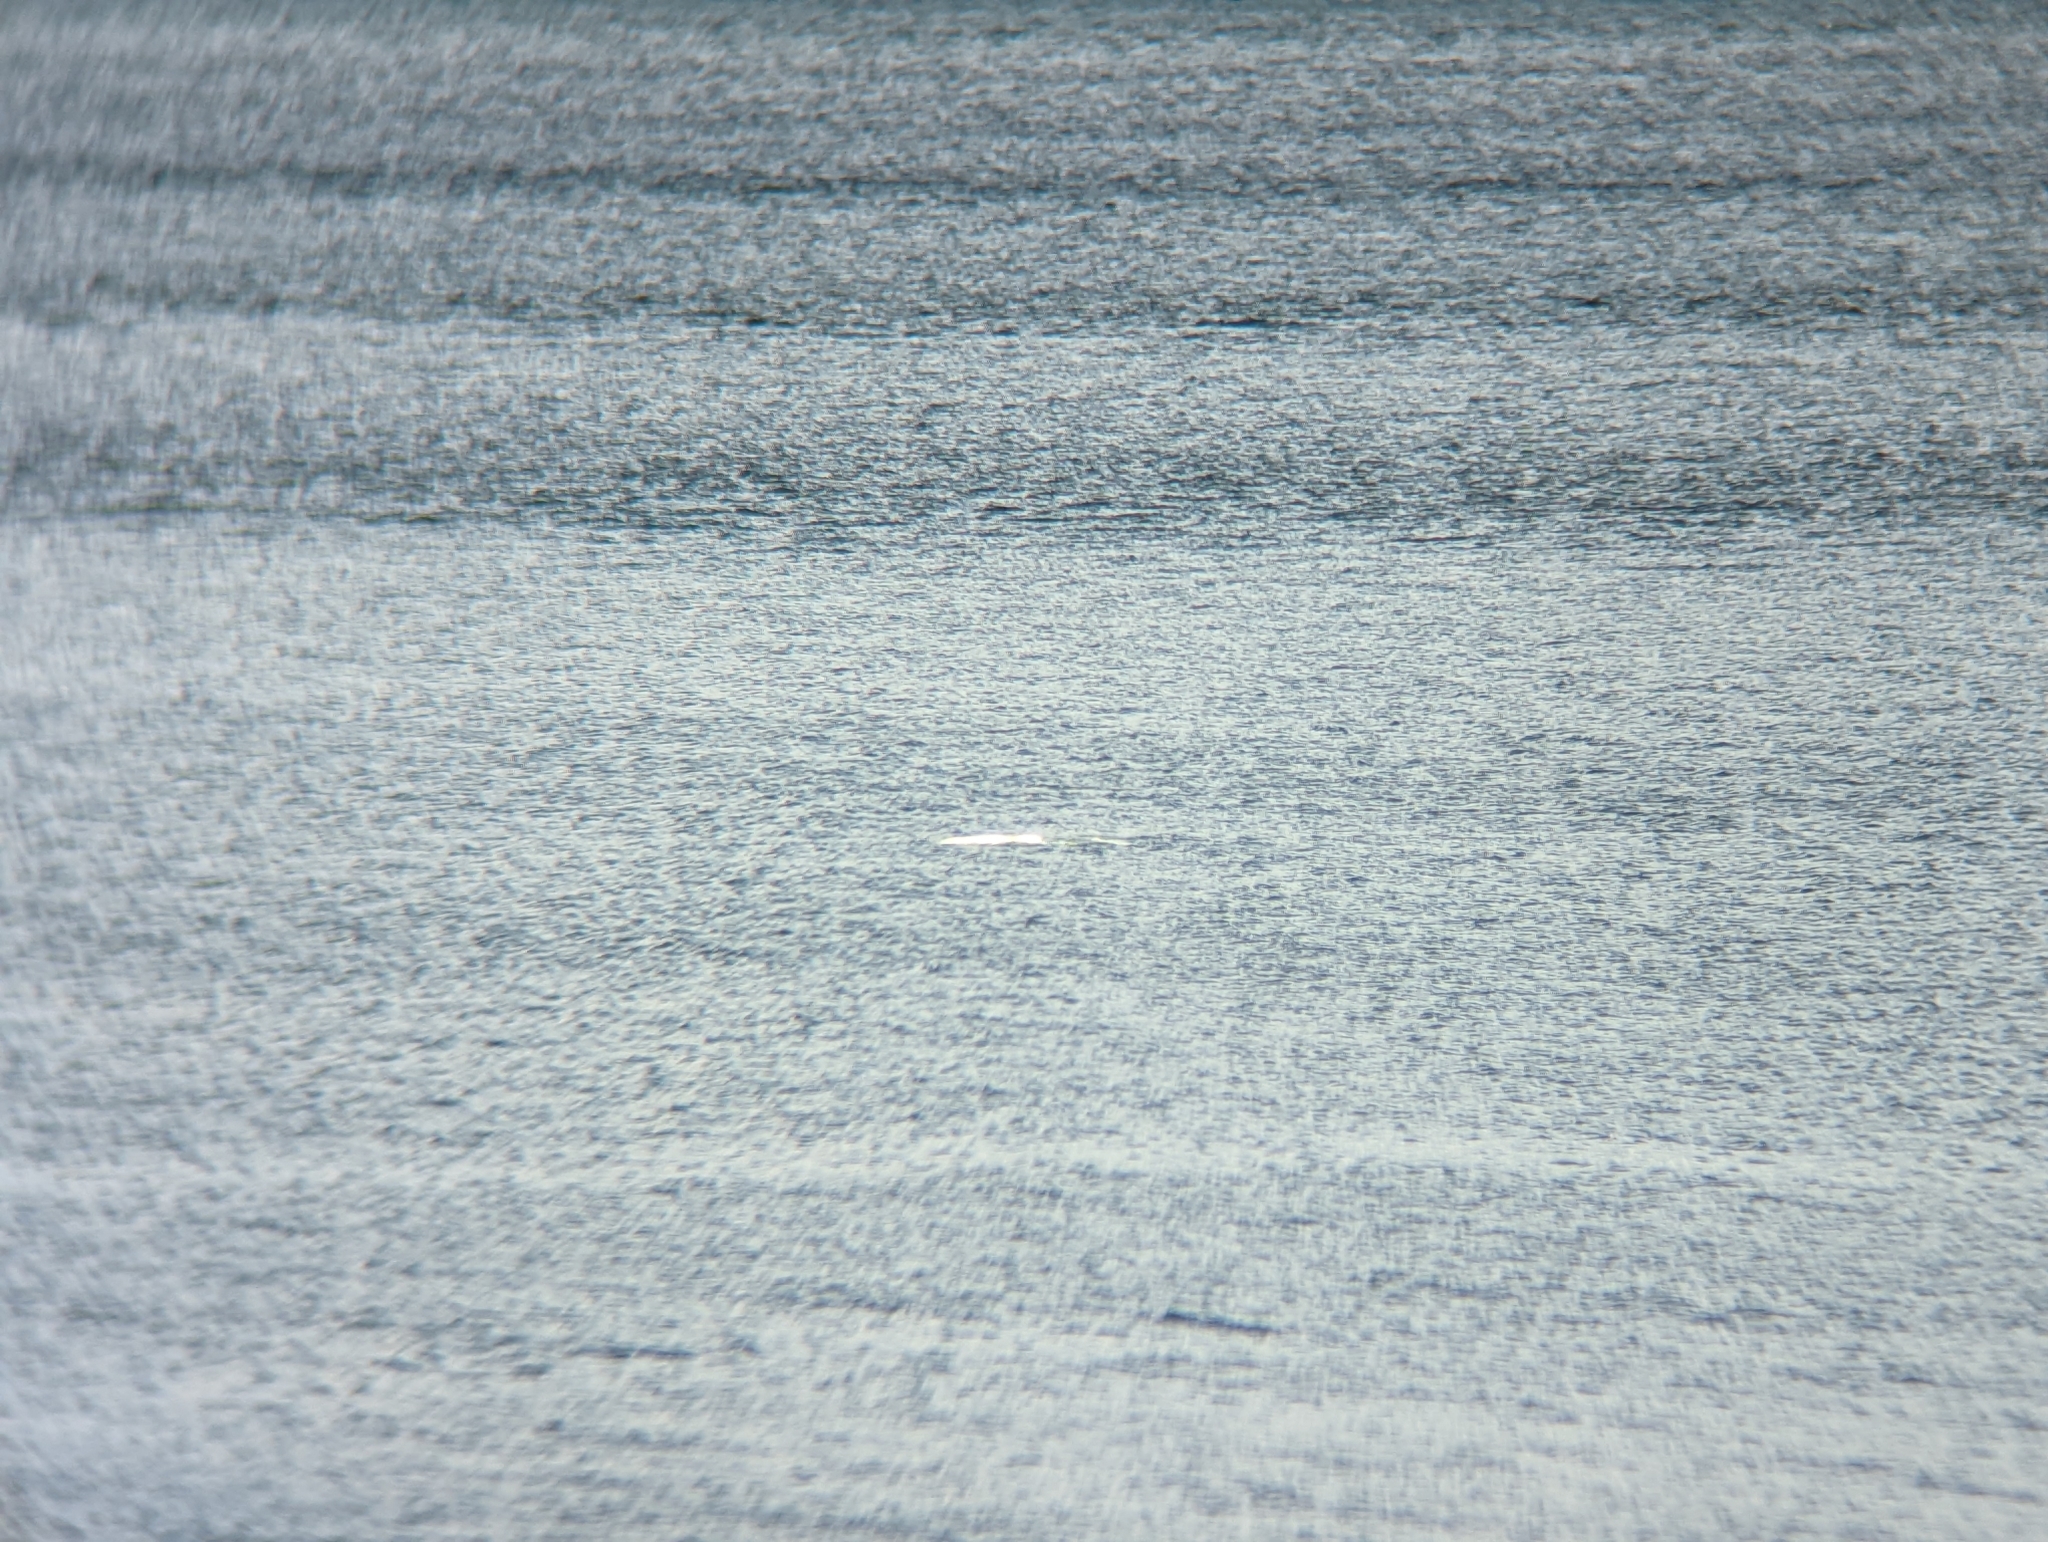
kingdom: Animalia
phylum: Chordata
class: Mammalia
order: Cetacea
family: Monodontidae
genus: Delphinapterus
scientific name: Delphinapterus leucas
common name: Beluga
